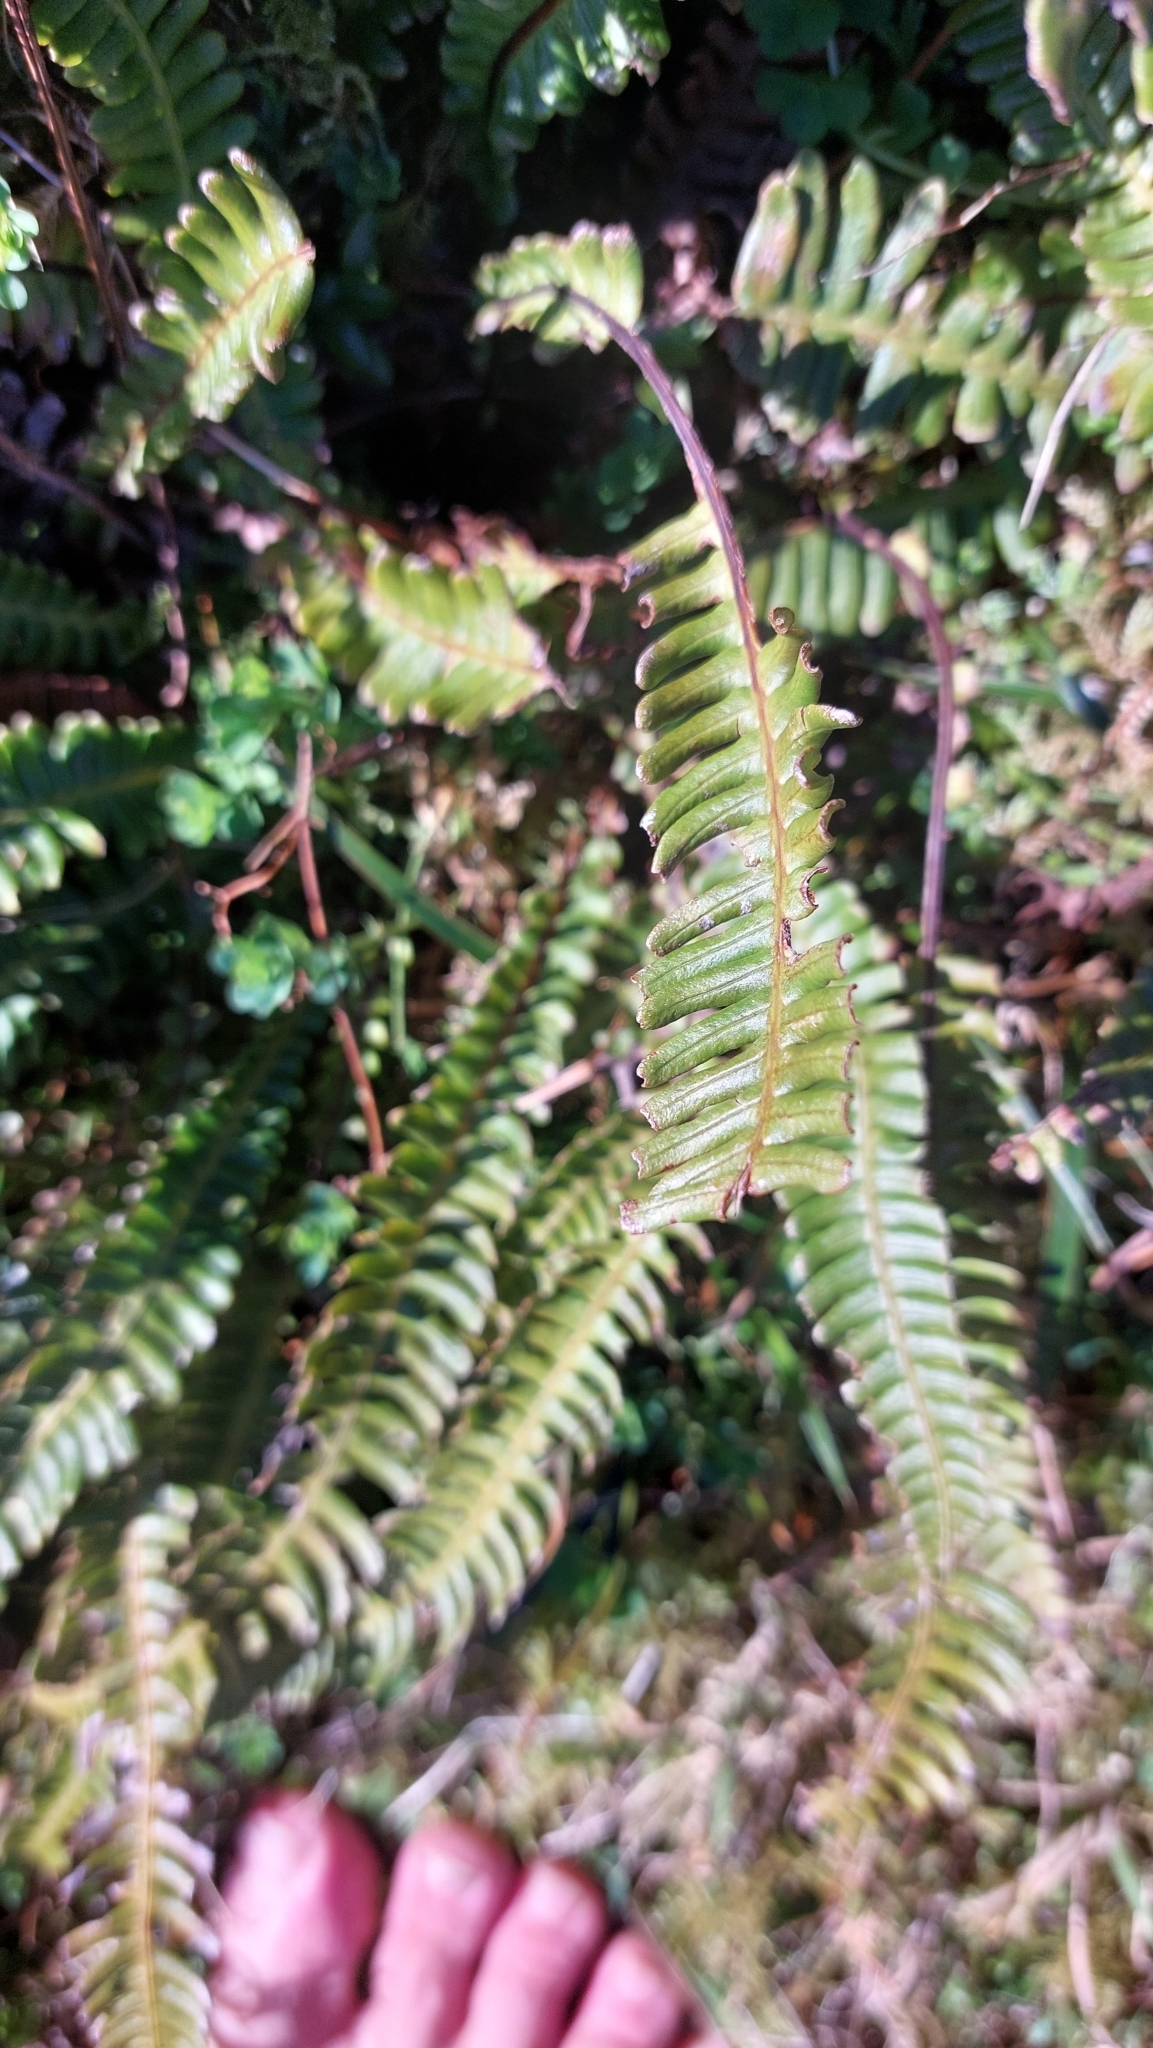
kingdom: Plantae
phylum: Tracheophyta
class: Polypodiopsida
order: Polypodiales
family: Blechnaceae
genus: Struthiopteris
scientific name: Struthiopteris spicant
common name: Deer fern
